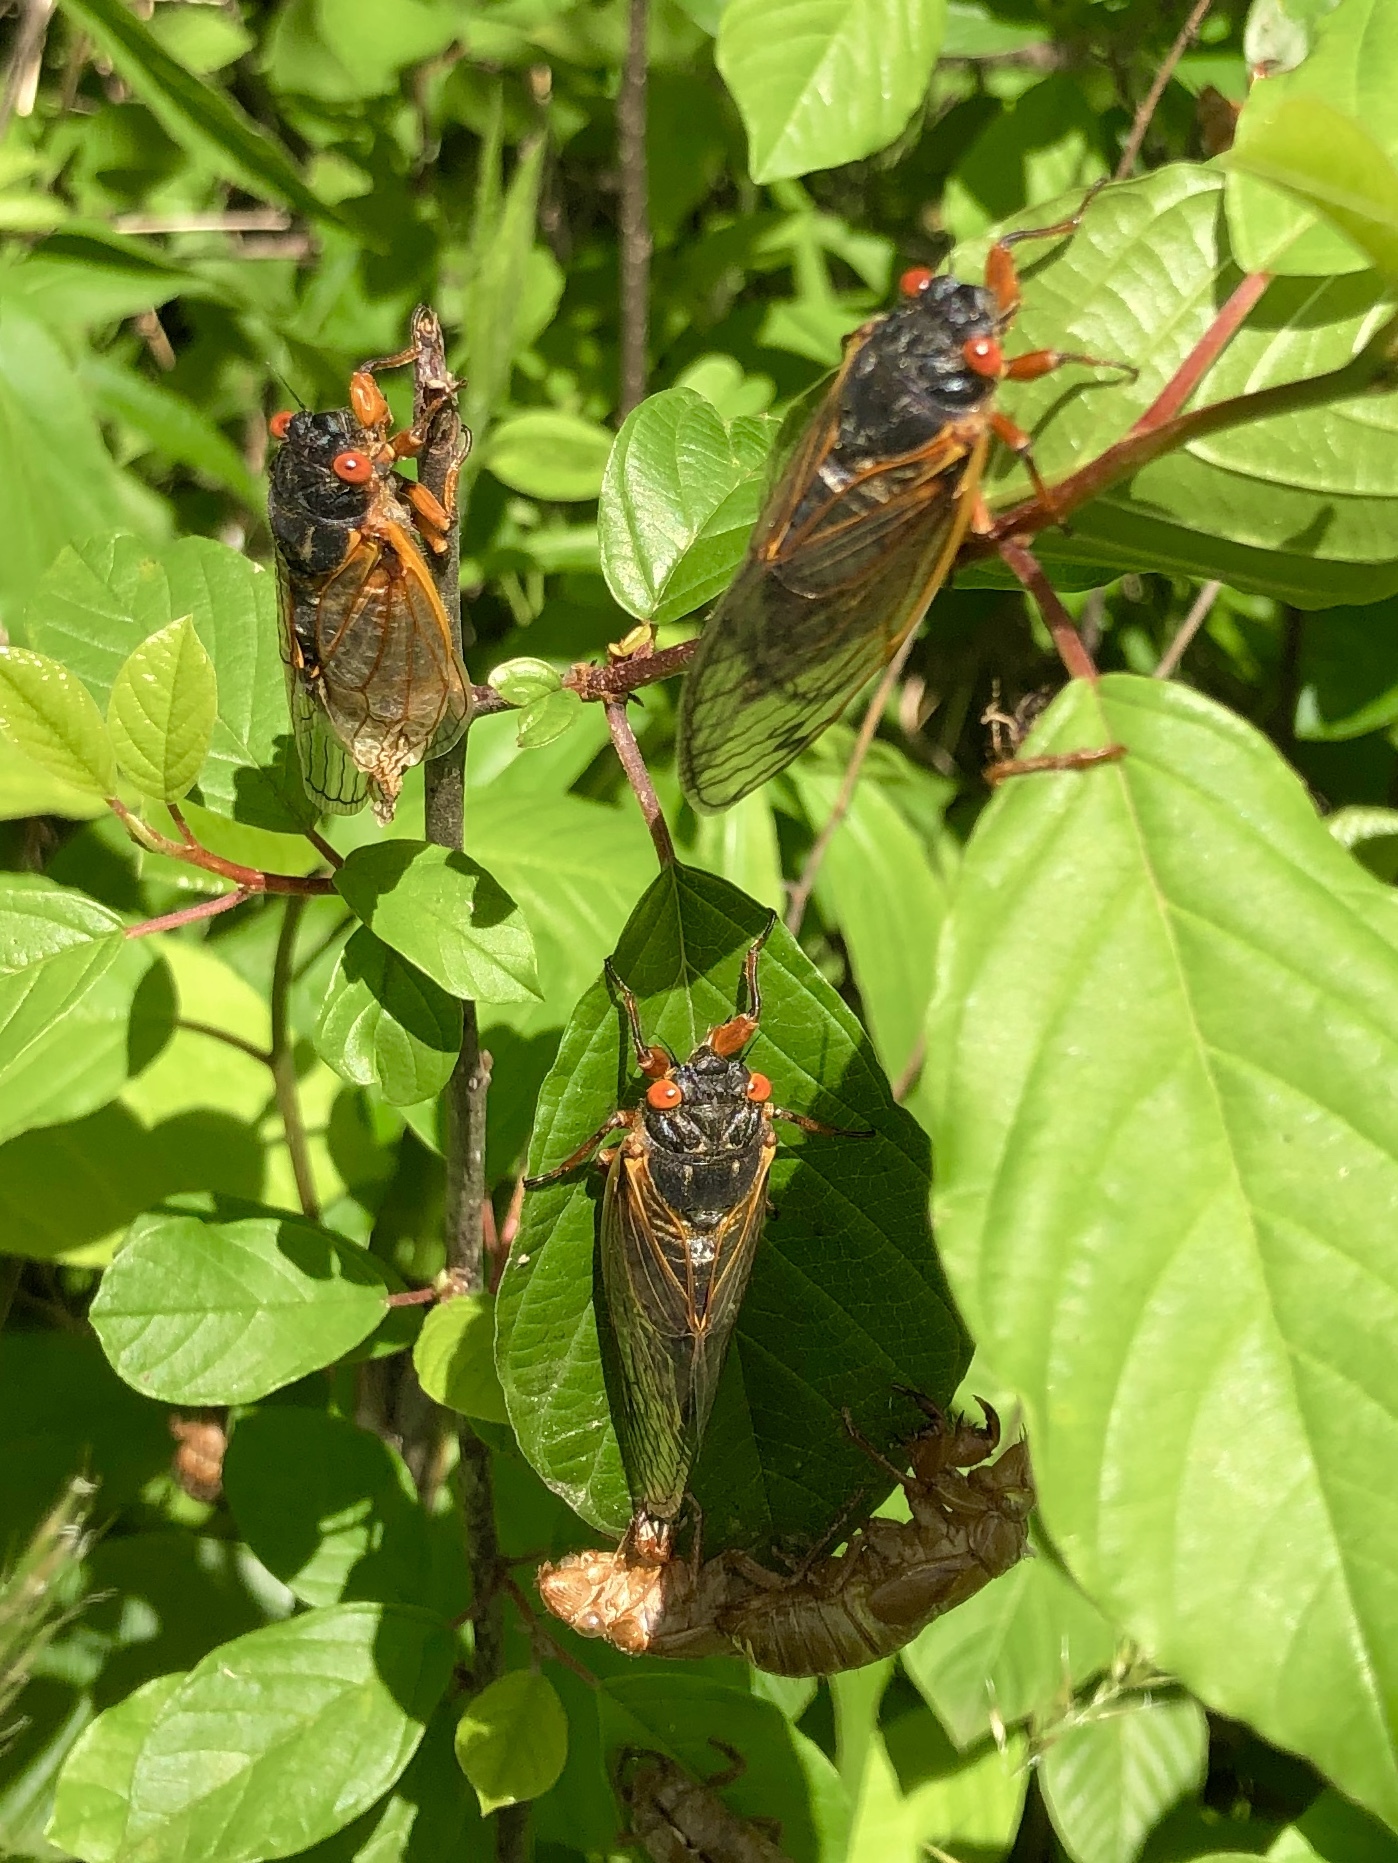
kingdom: Animalia
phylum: Arthropoda
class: Insecta
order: Hemiptera
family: Cicadidae
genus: Magicicada
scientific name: Magicicada septendecim
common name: Periodical cicada
